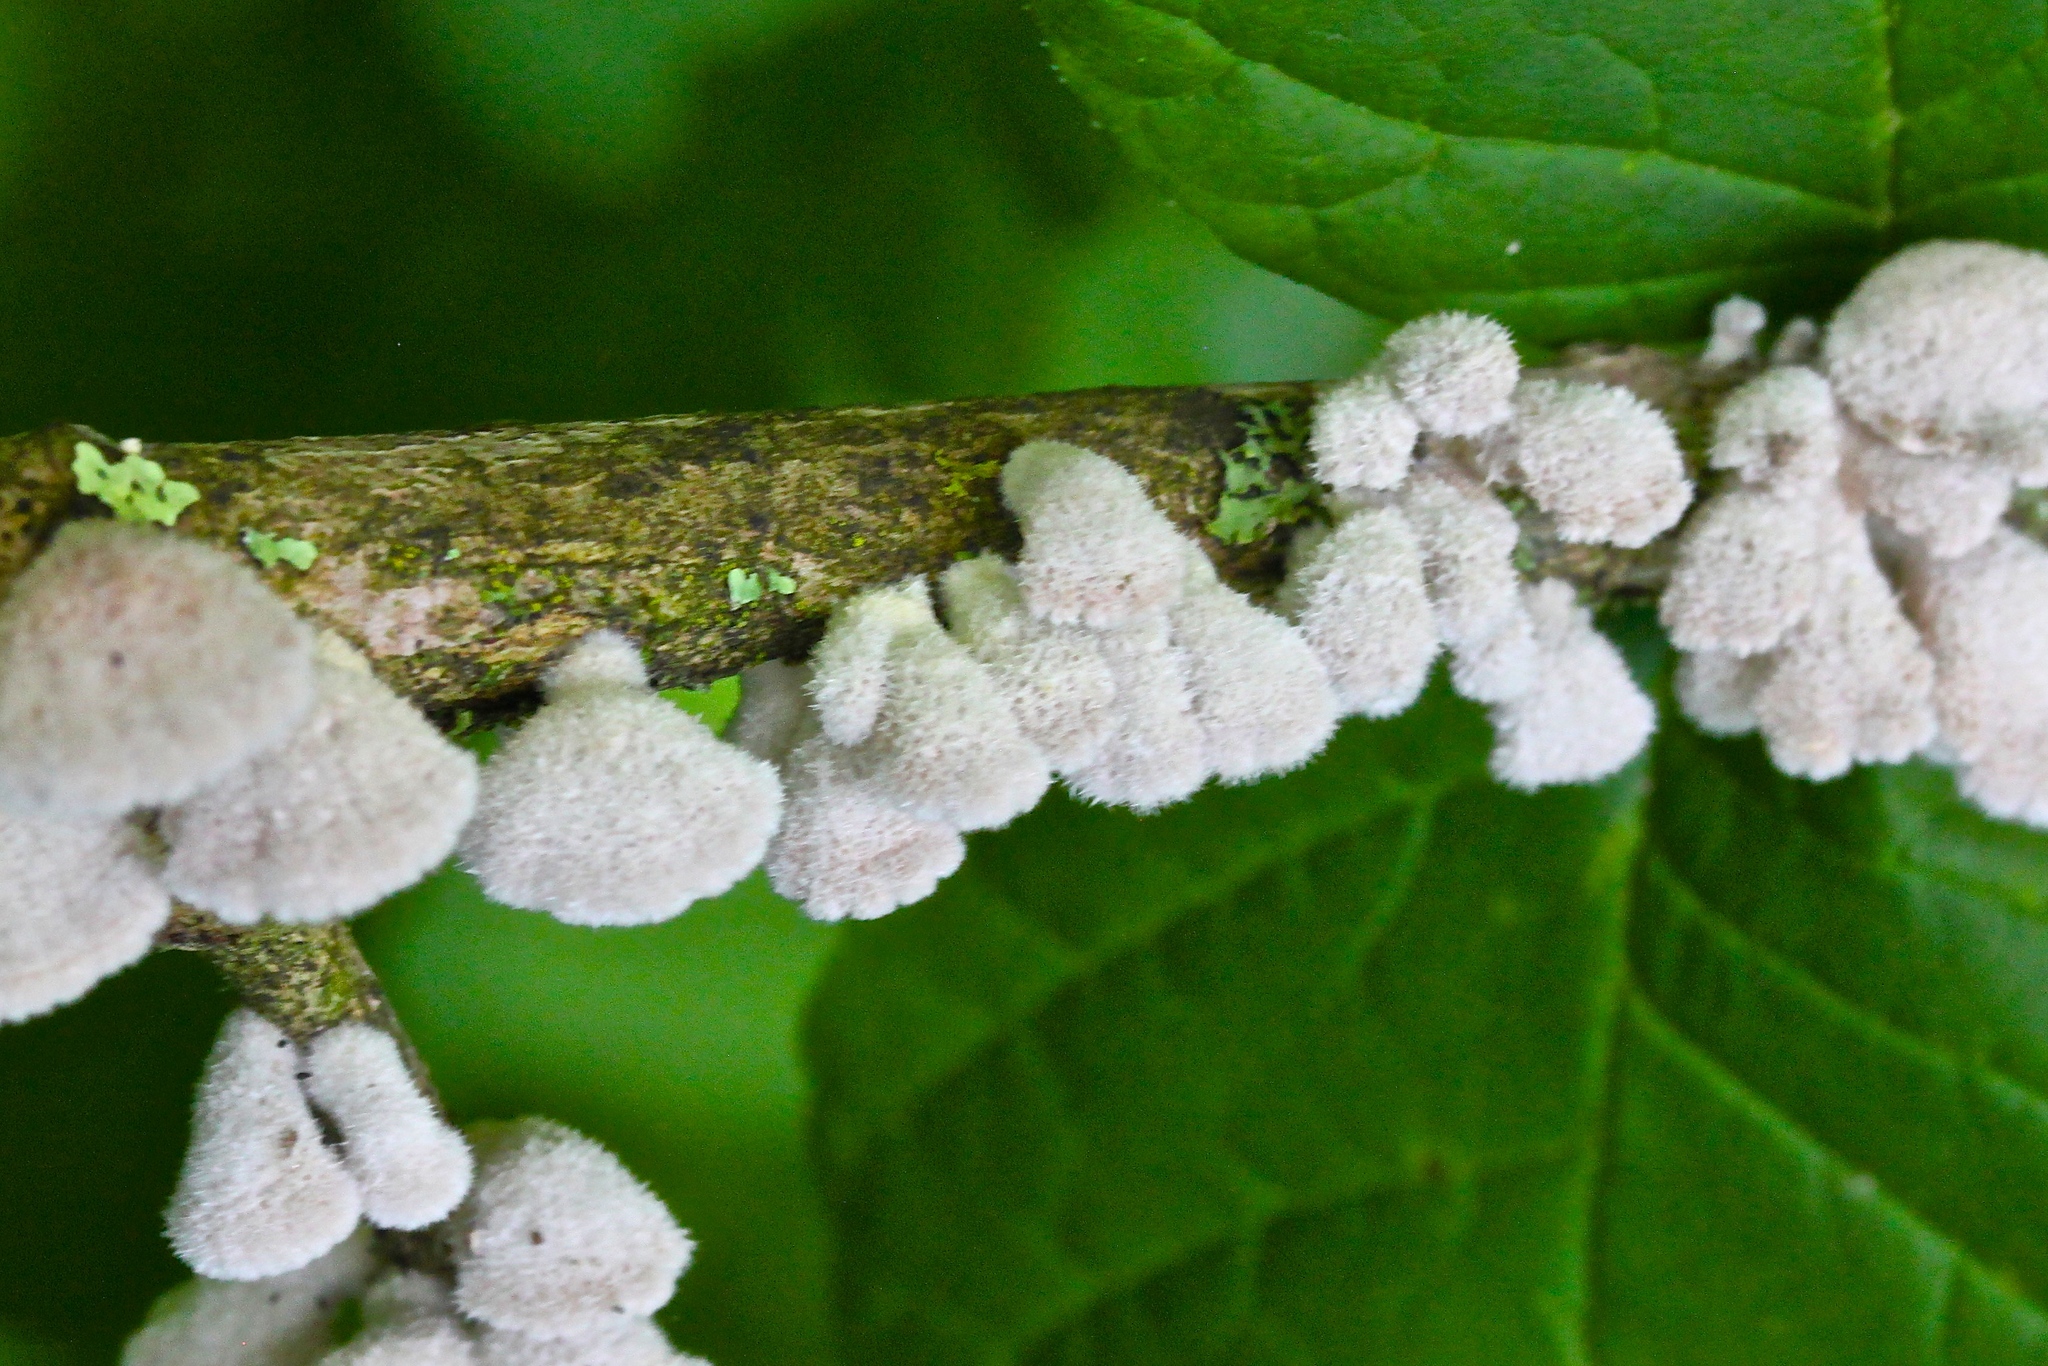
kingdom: Fungi
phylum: Basidiomycota
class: Agaricomycetes
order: Agaricales
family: Schizophyllaceae
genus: Schizophyllum
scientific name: Schizophyllum commune
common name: Common porecrust
